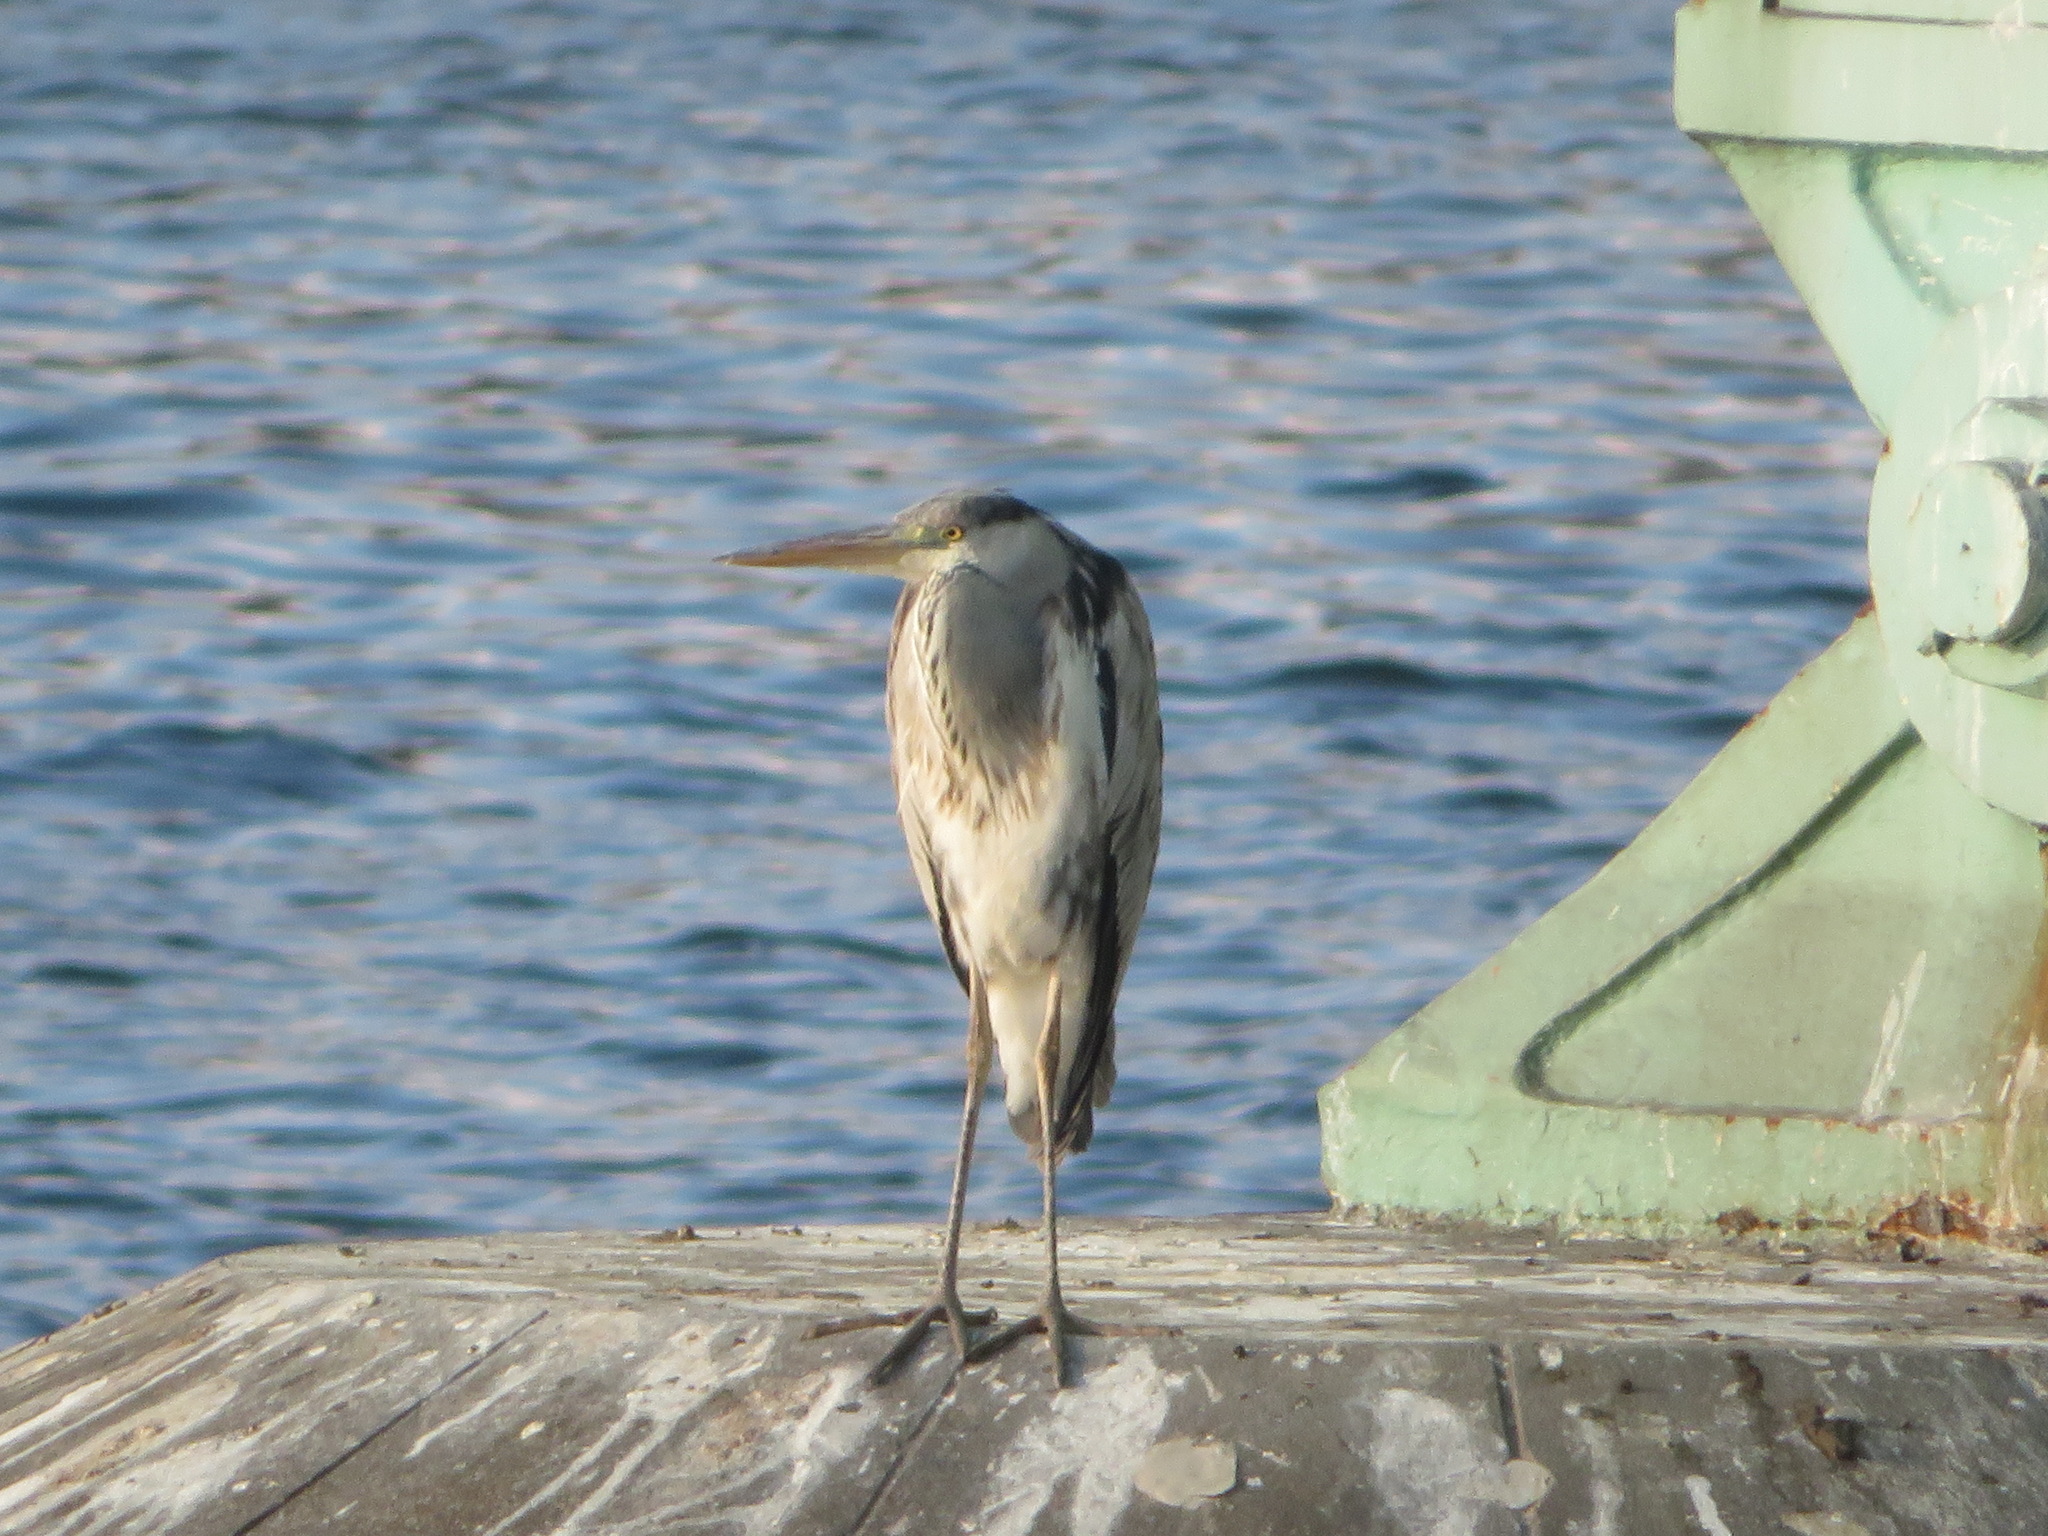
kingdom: Animalia
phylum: Chordata
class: Aves
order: Pelecaniformes
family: Ardeidae
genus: Ardea
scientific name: Ardea cinerea
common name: Grey heron
